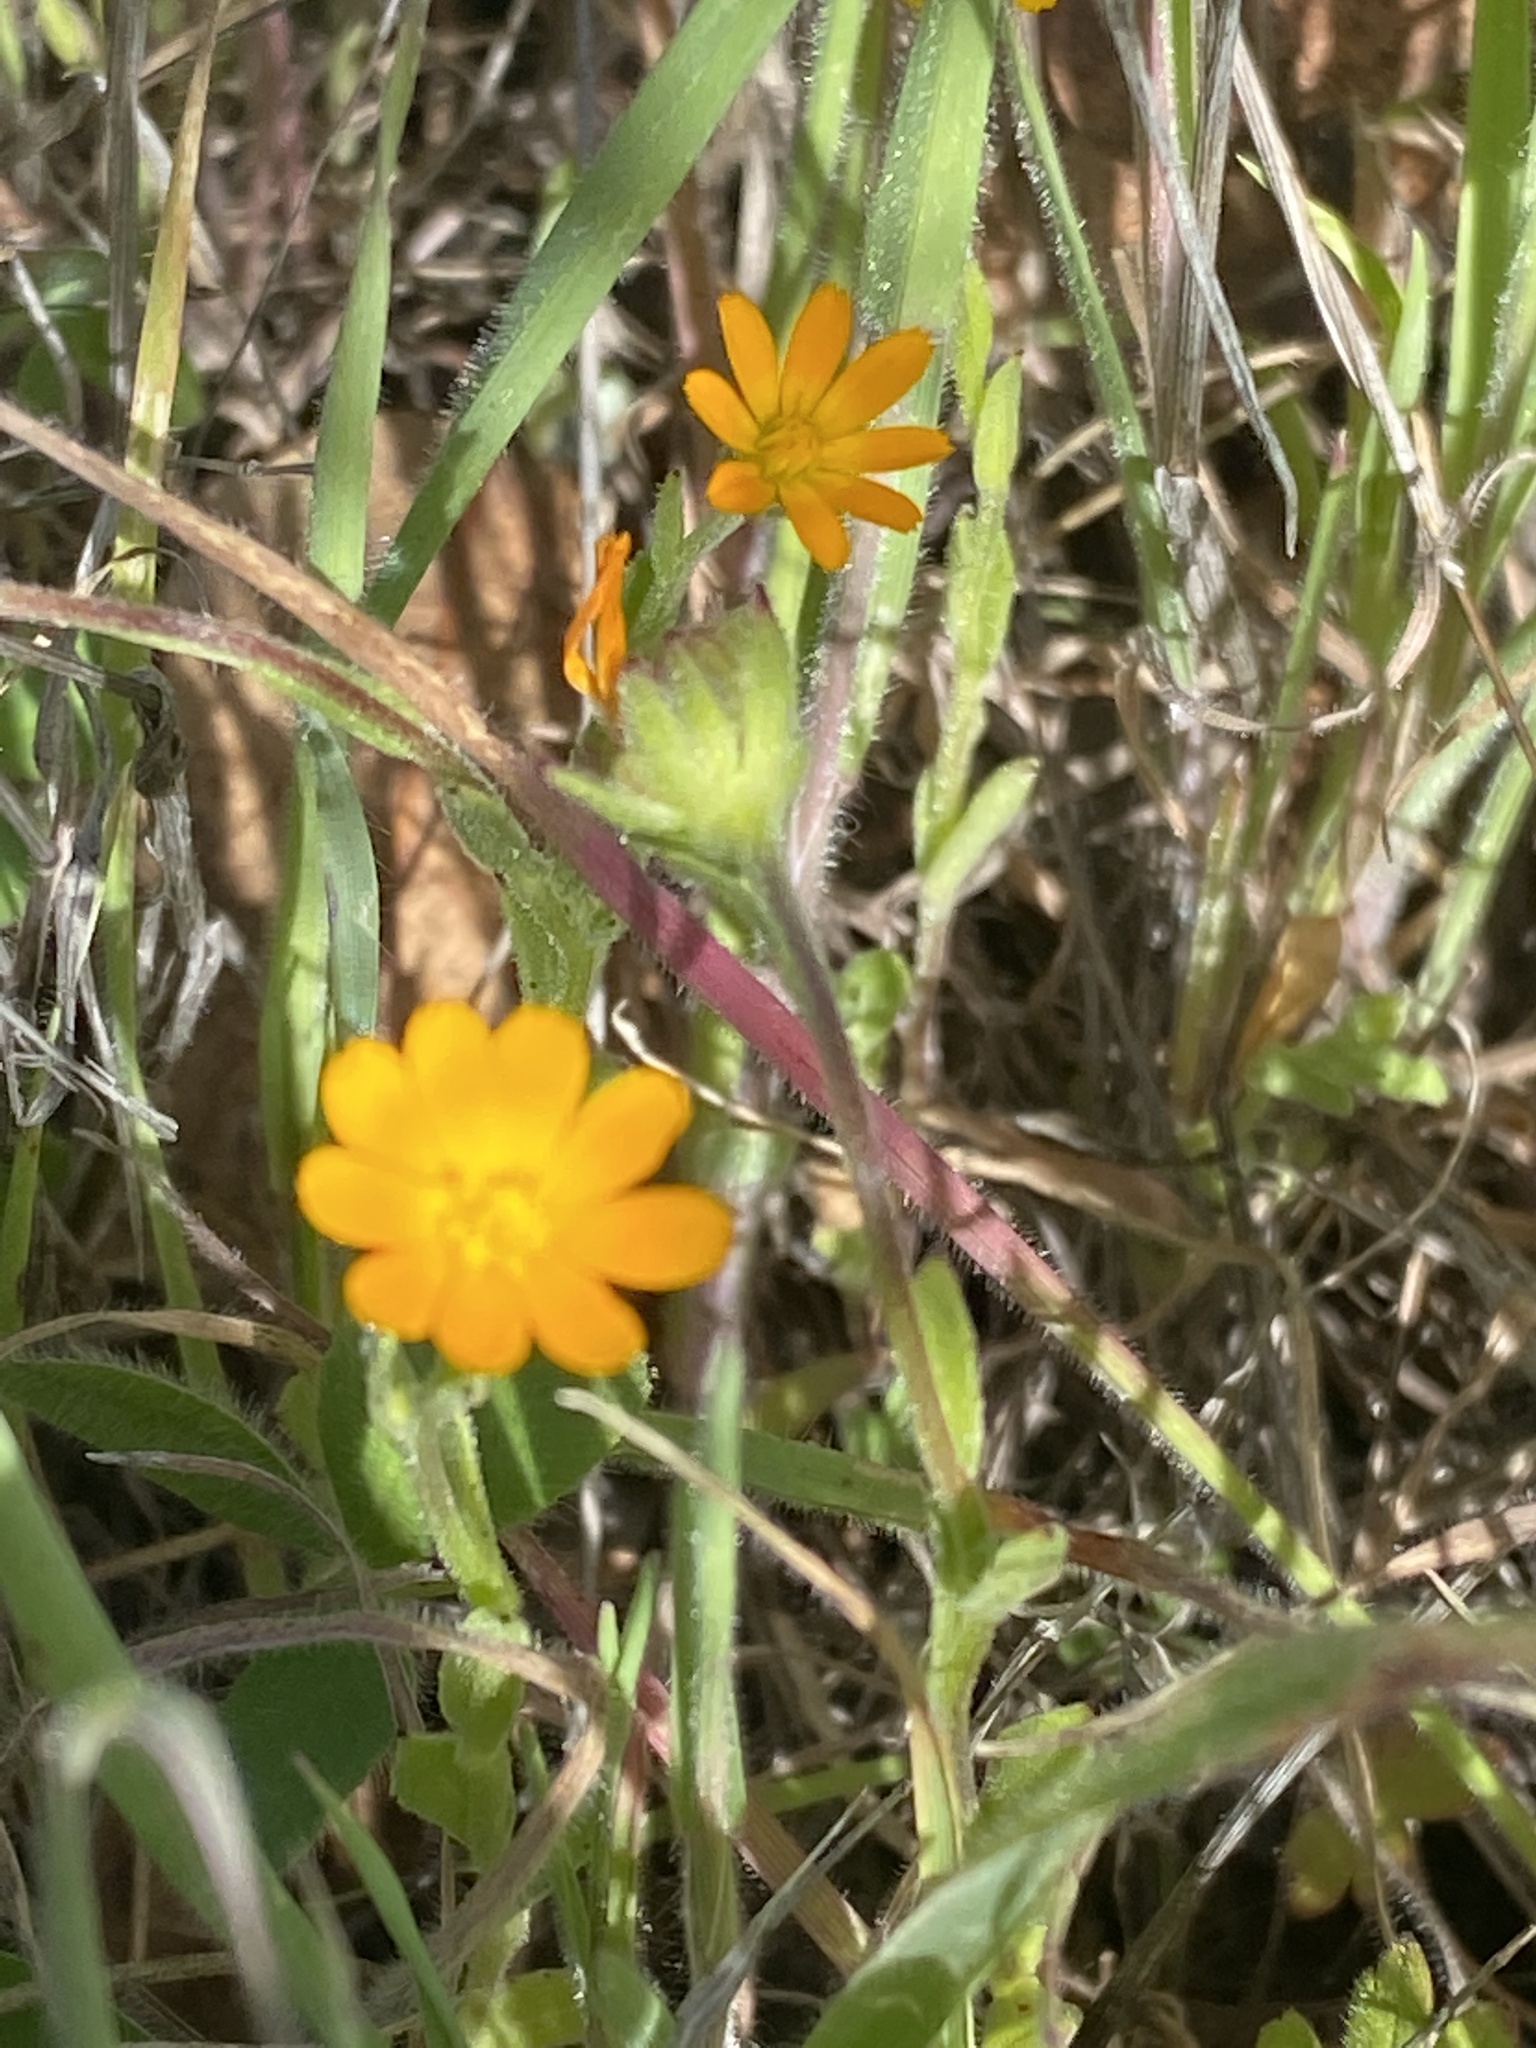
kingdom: Plantae
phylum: Tracheophyta
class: Magnoliopsida
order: Asterales
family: Asteraceae
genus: Calendula
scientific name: Calendula arvensis
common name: Field marigold
